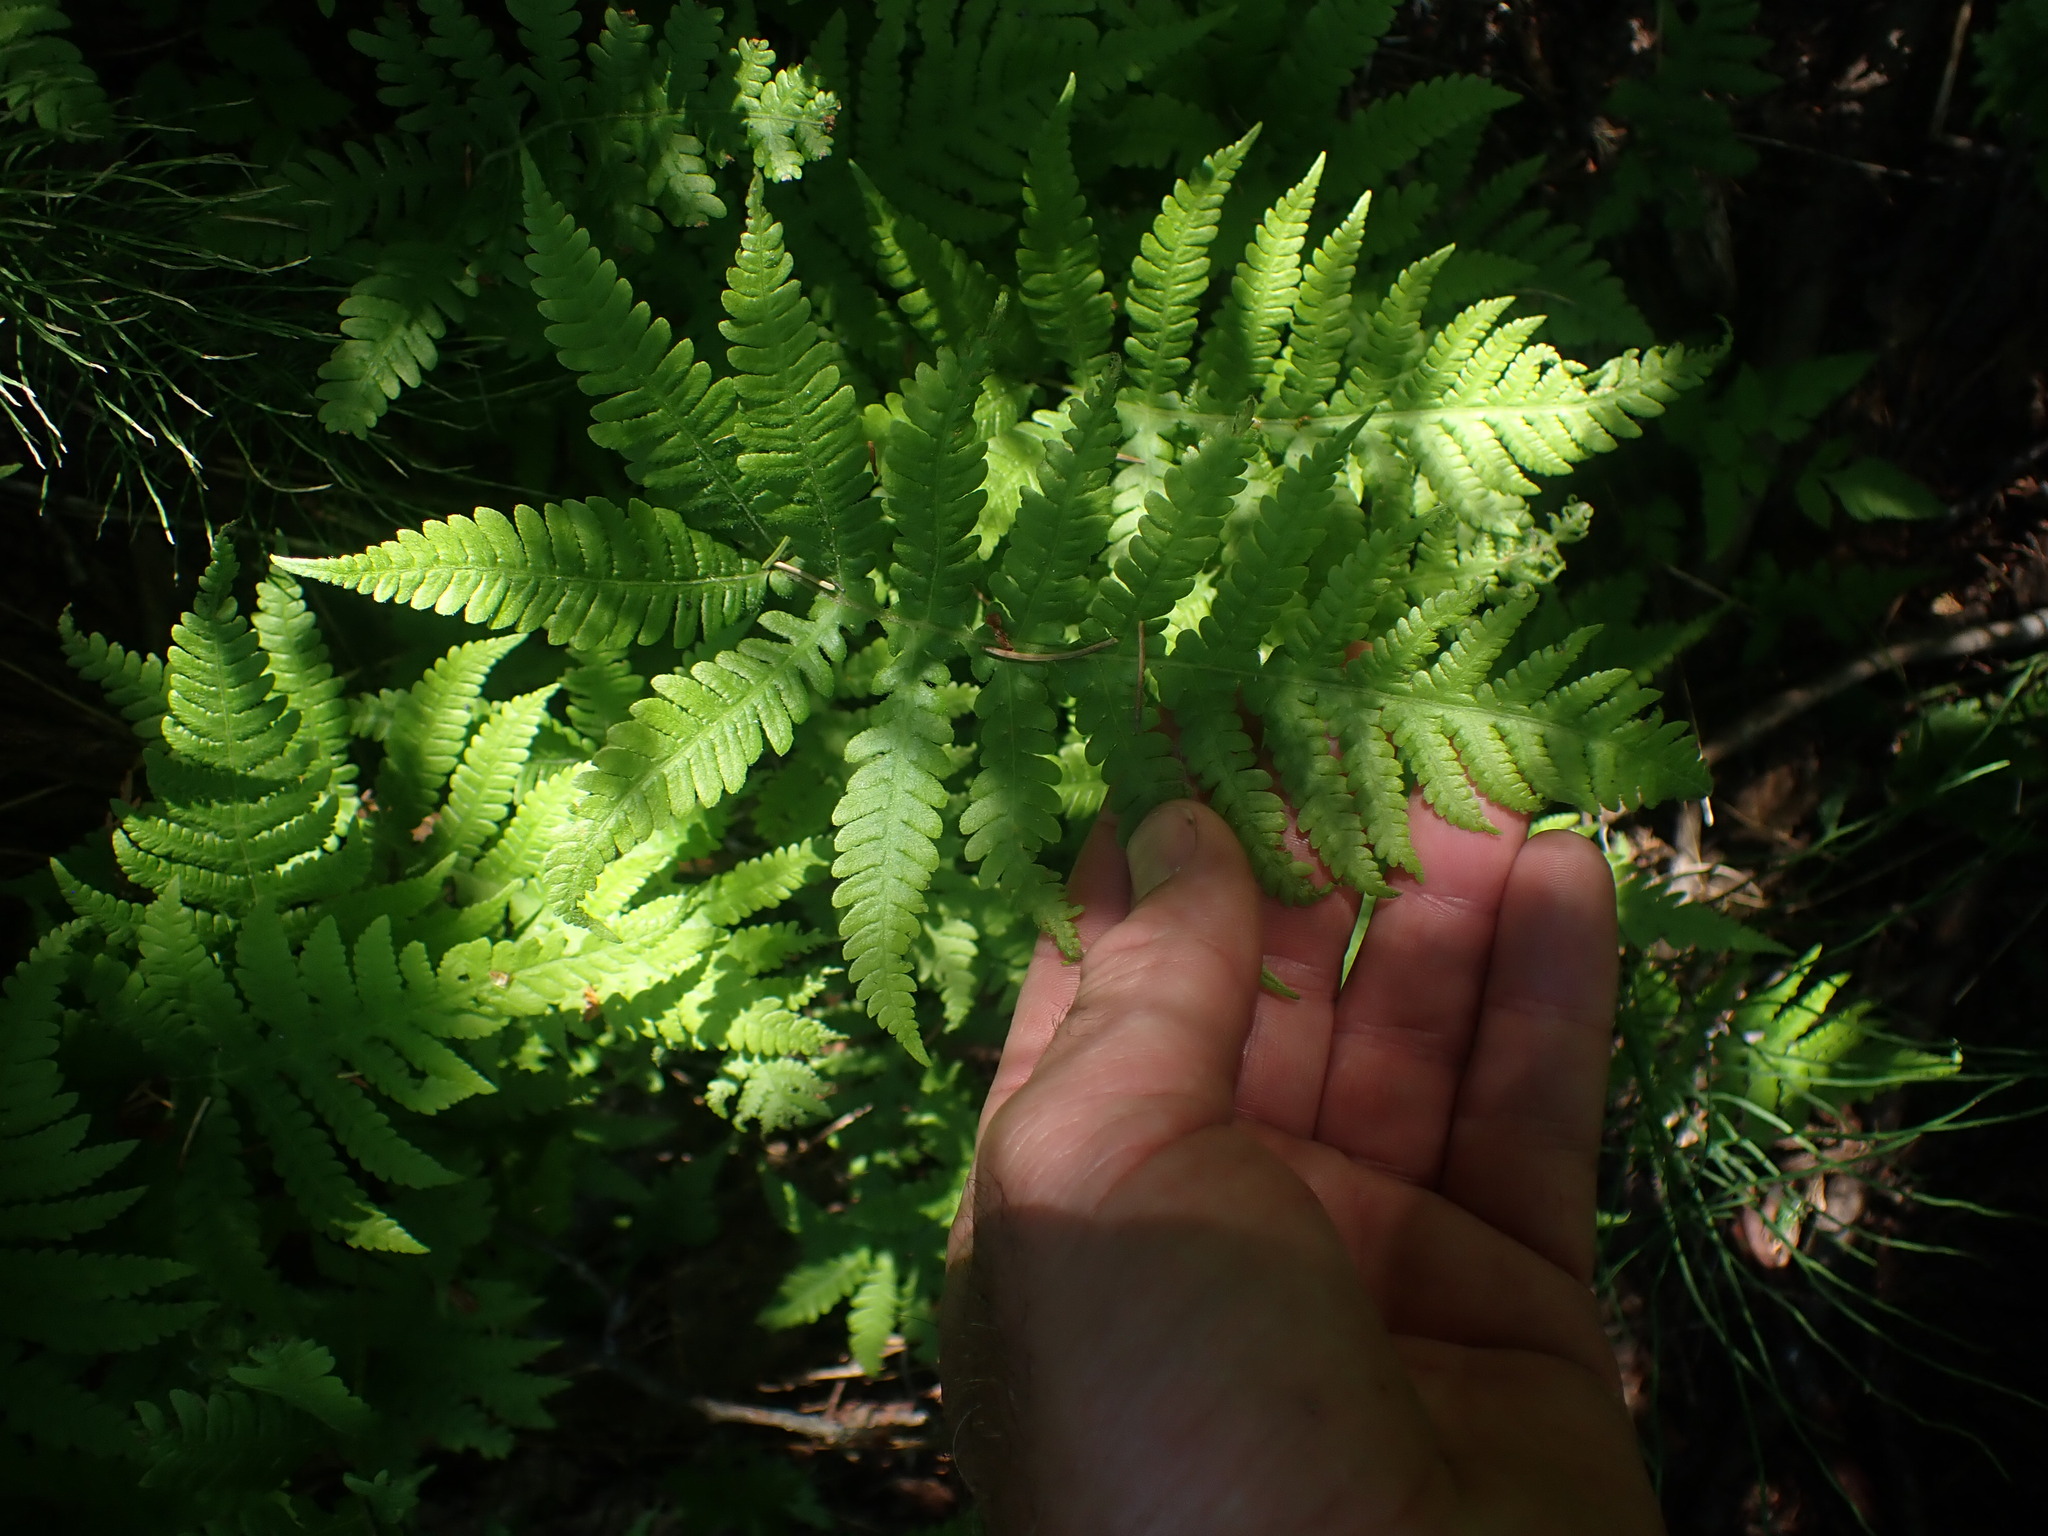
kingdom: Plantae
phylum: Tracheophyta
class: Polypodiopsida
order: Polypodiales
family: Thelypteridaceae
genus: Phegopteris
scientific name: Phegopteris connectilis
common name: Beech fern
